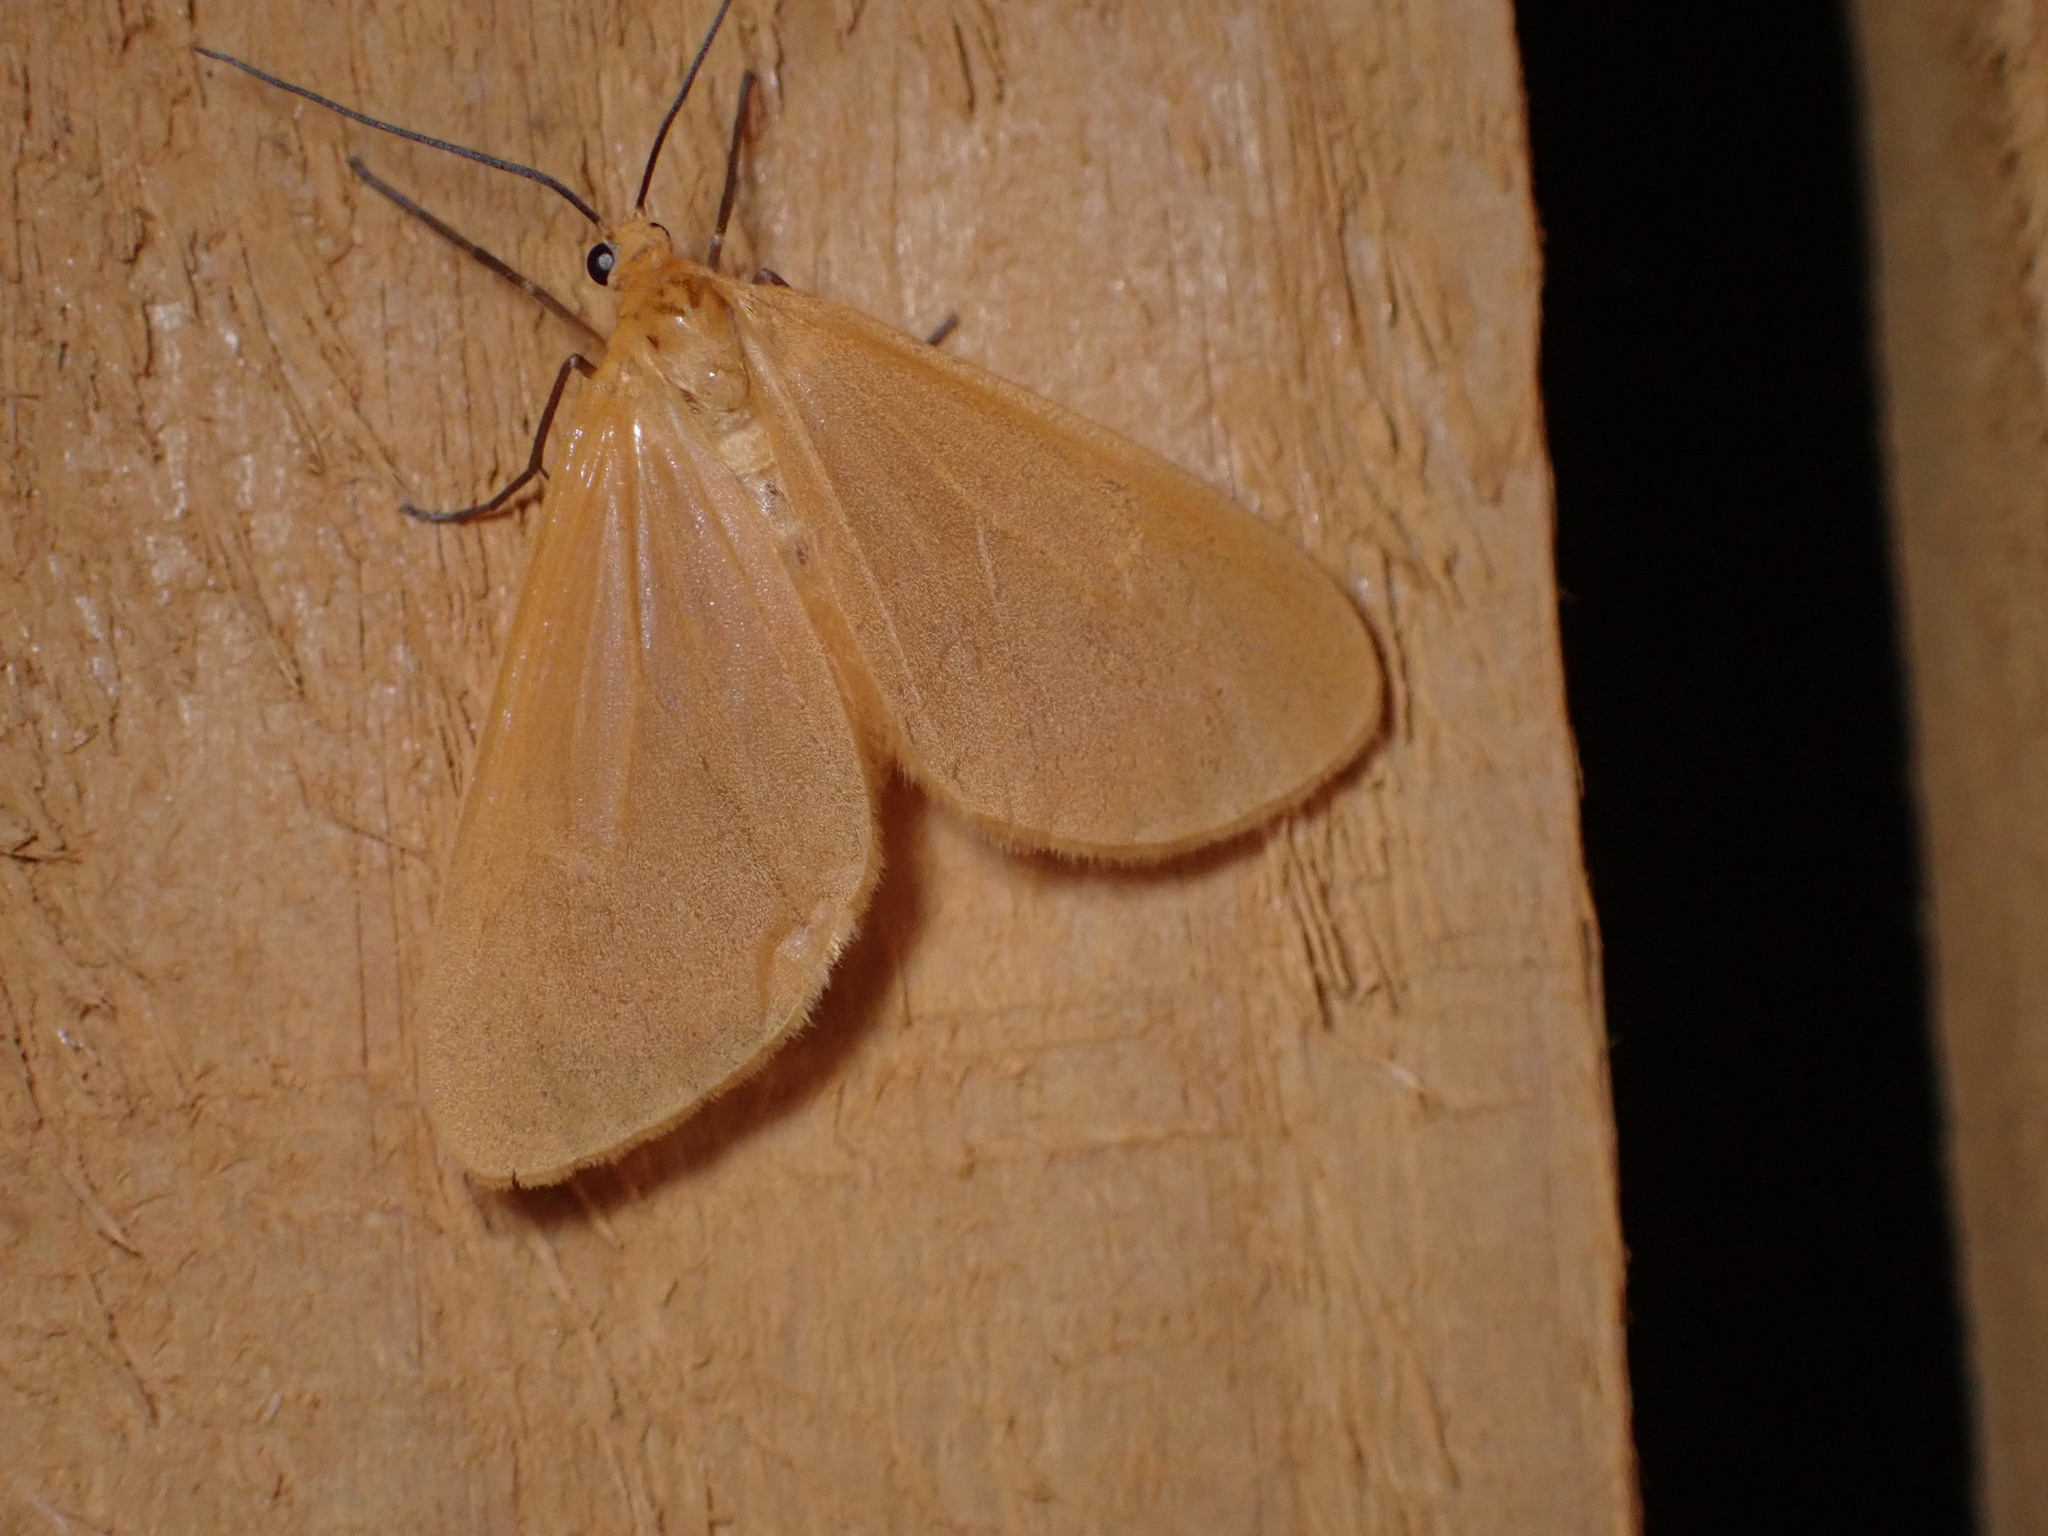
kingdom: Animalia
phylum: Arthropoda
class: Insecta
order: Lepidoptera
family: Geometridae
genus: Eubaphe
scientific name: Eubaphe unicolor
